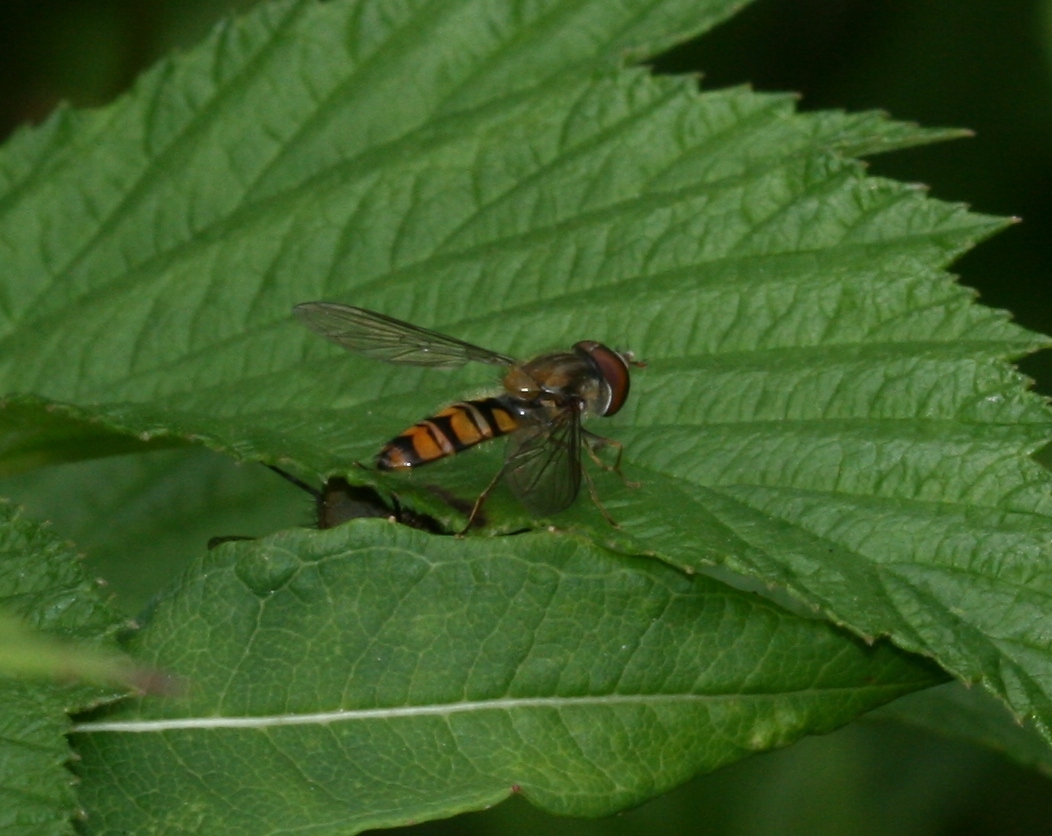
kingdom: Animalia
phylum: Arthropoda
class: Insecta
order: Diptera
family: Syrphidae
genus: Episyrphus
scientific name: Episyrphus balteatus
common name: Marmalade hoverfly
